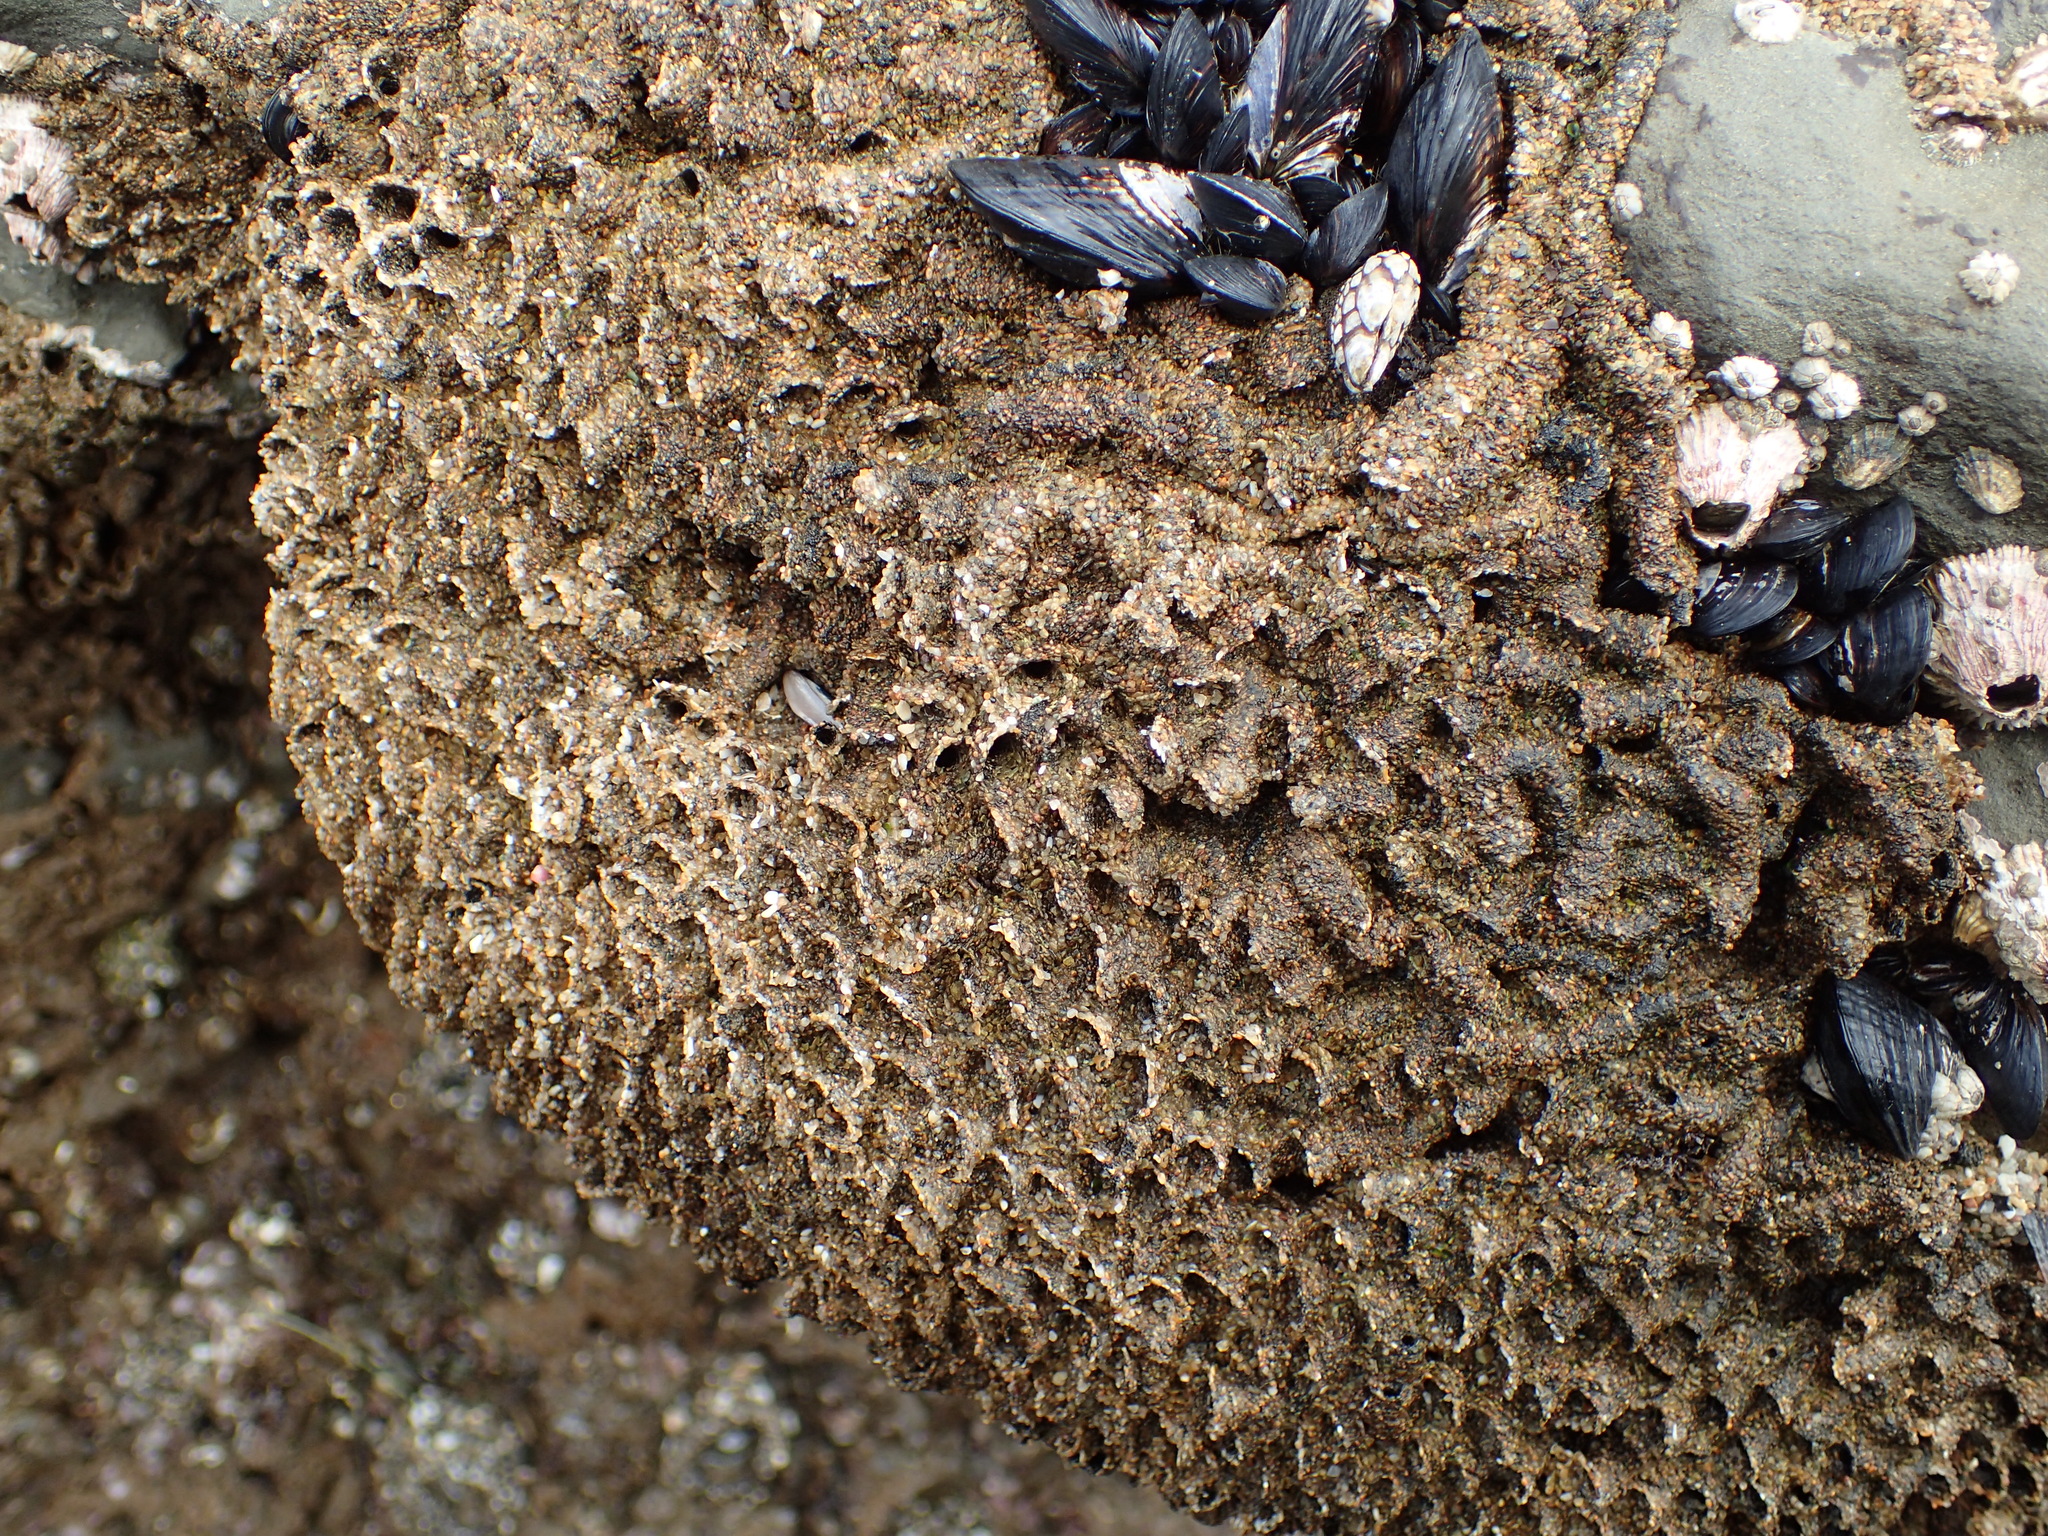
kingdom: Animalia
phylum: Annelida
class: Polychaeta
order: Sabellida
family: Sabellariidae
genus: Phragmatopoma
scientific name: Phragmatopoma californica
